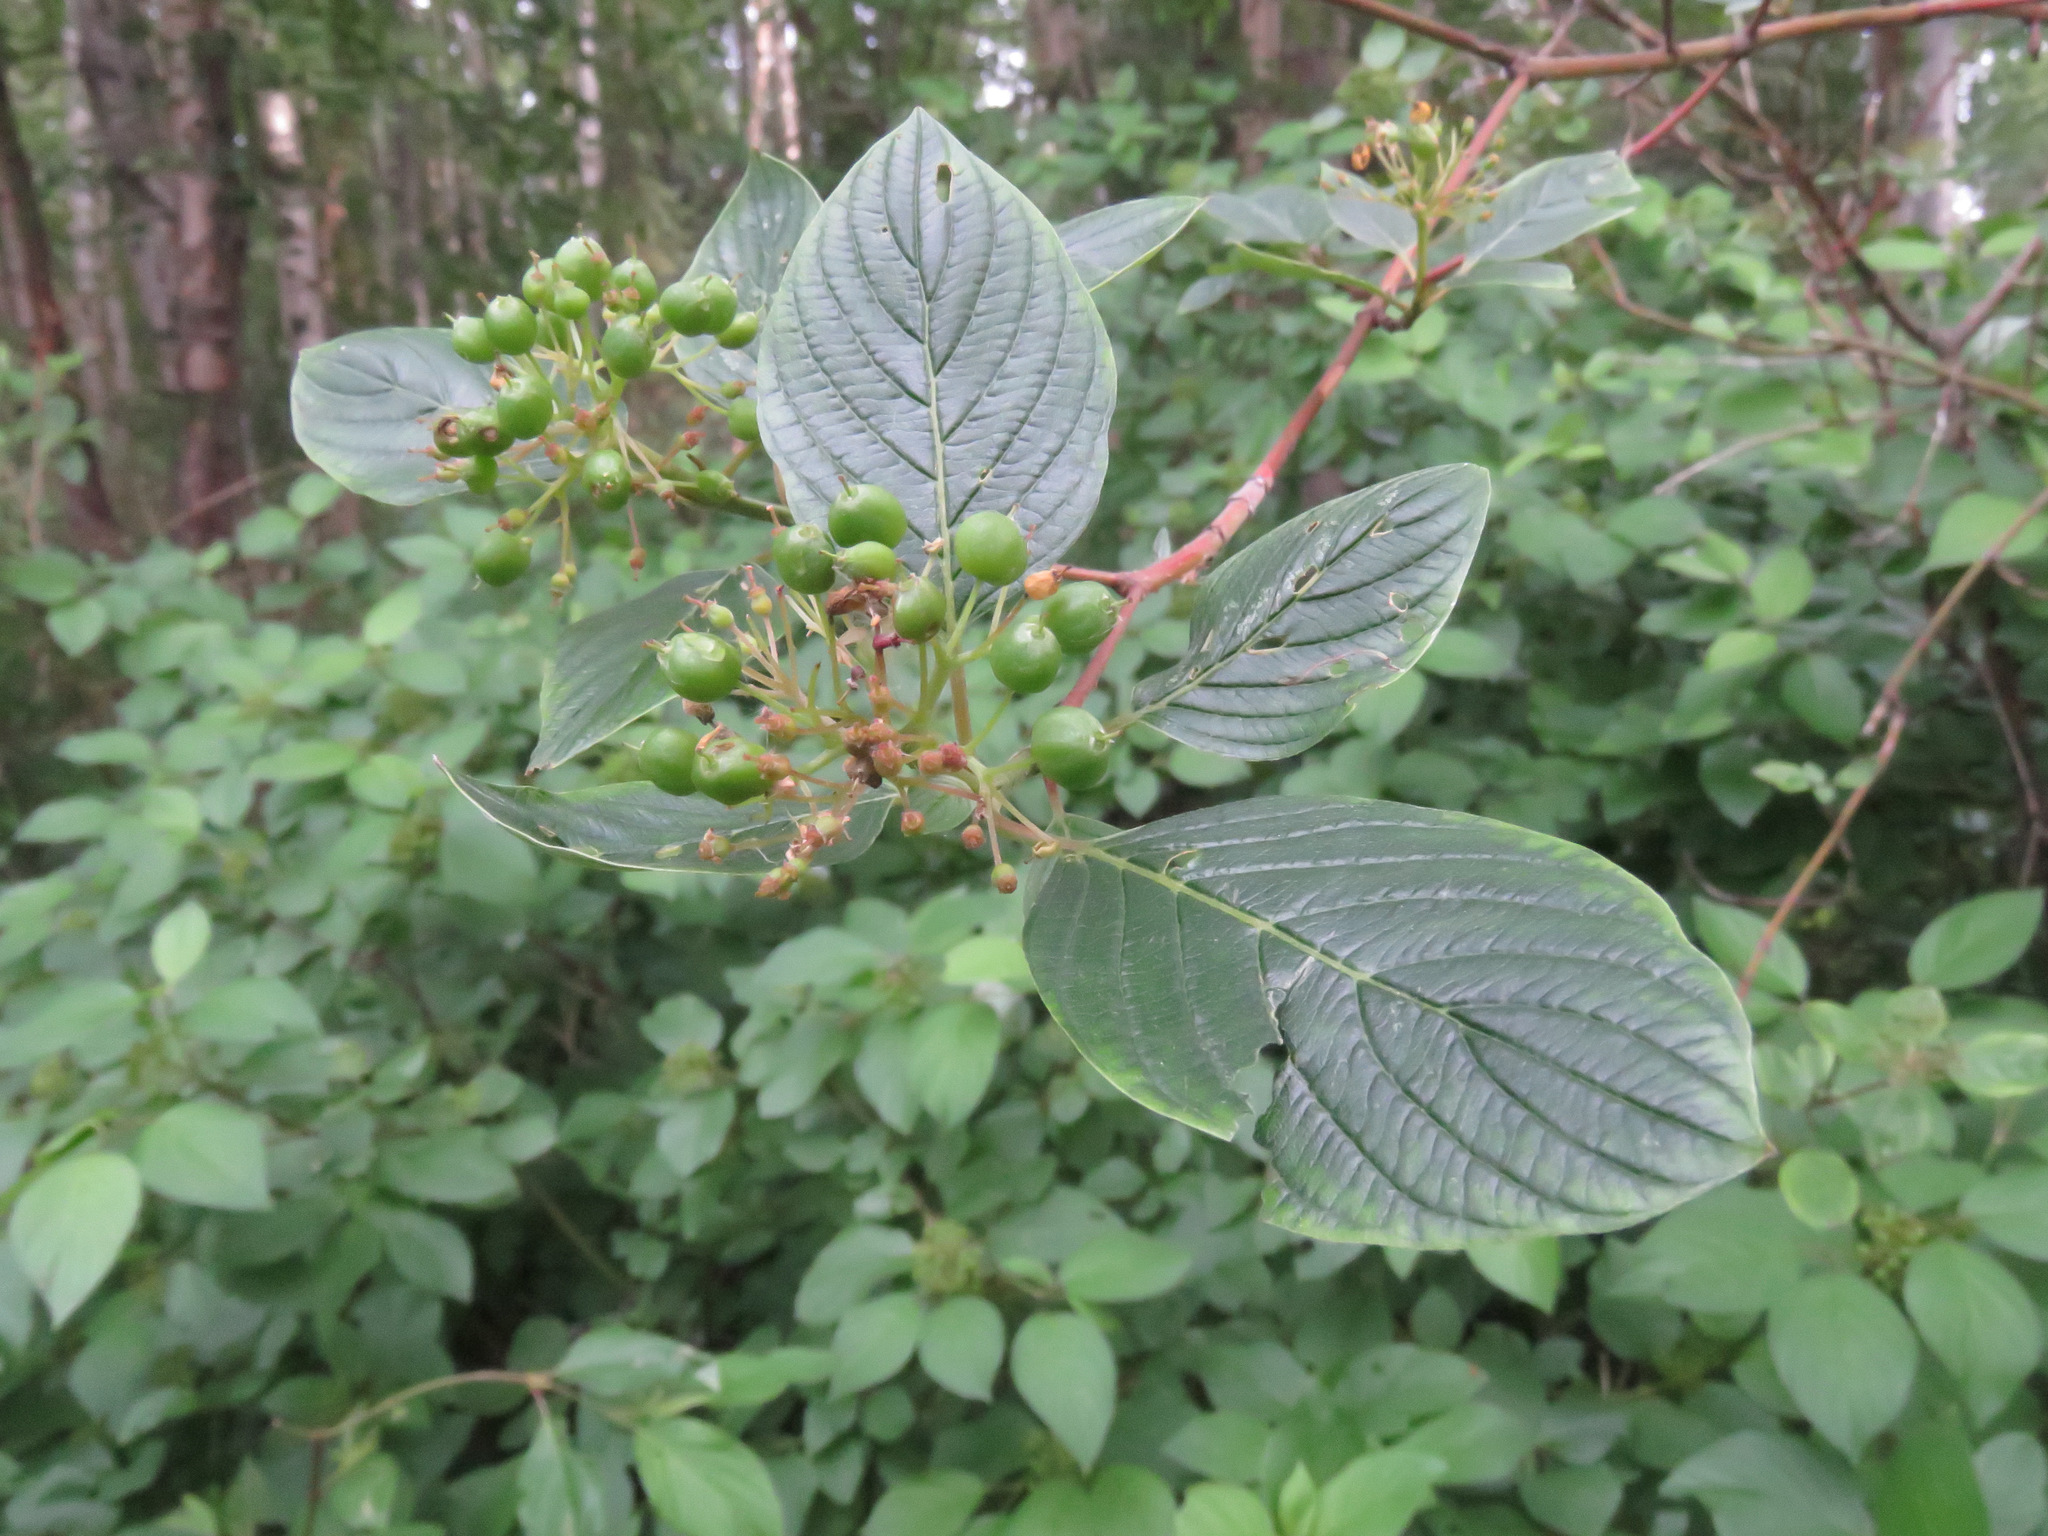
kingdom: Plantae
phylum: Tracheophyta
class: Magnoliopsida
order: Cornales
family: Cornaceae
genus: Cornus
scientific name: Cornus sericea
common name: Red-osier dogwood
